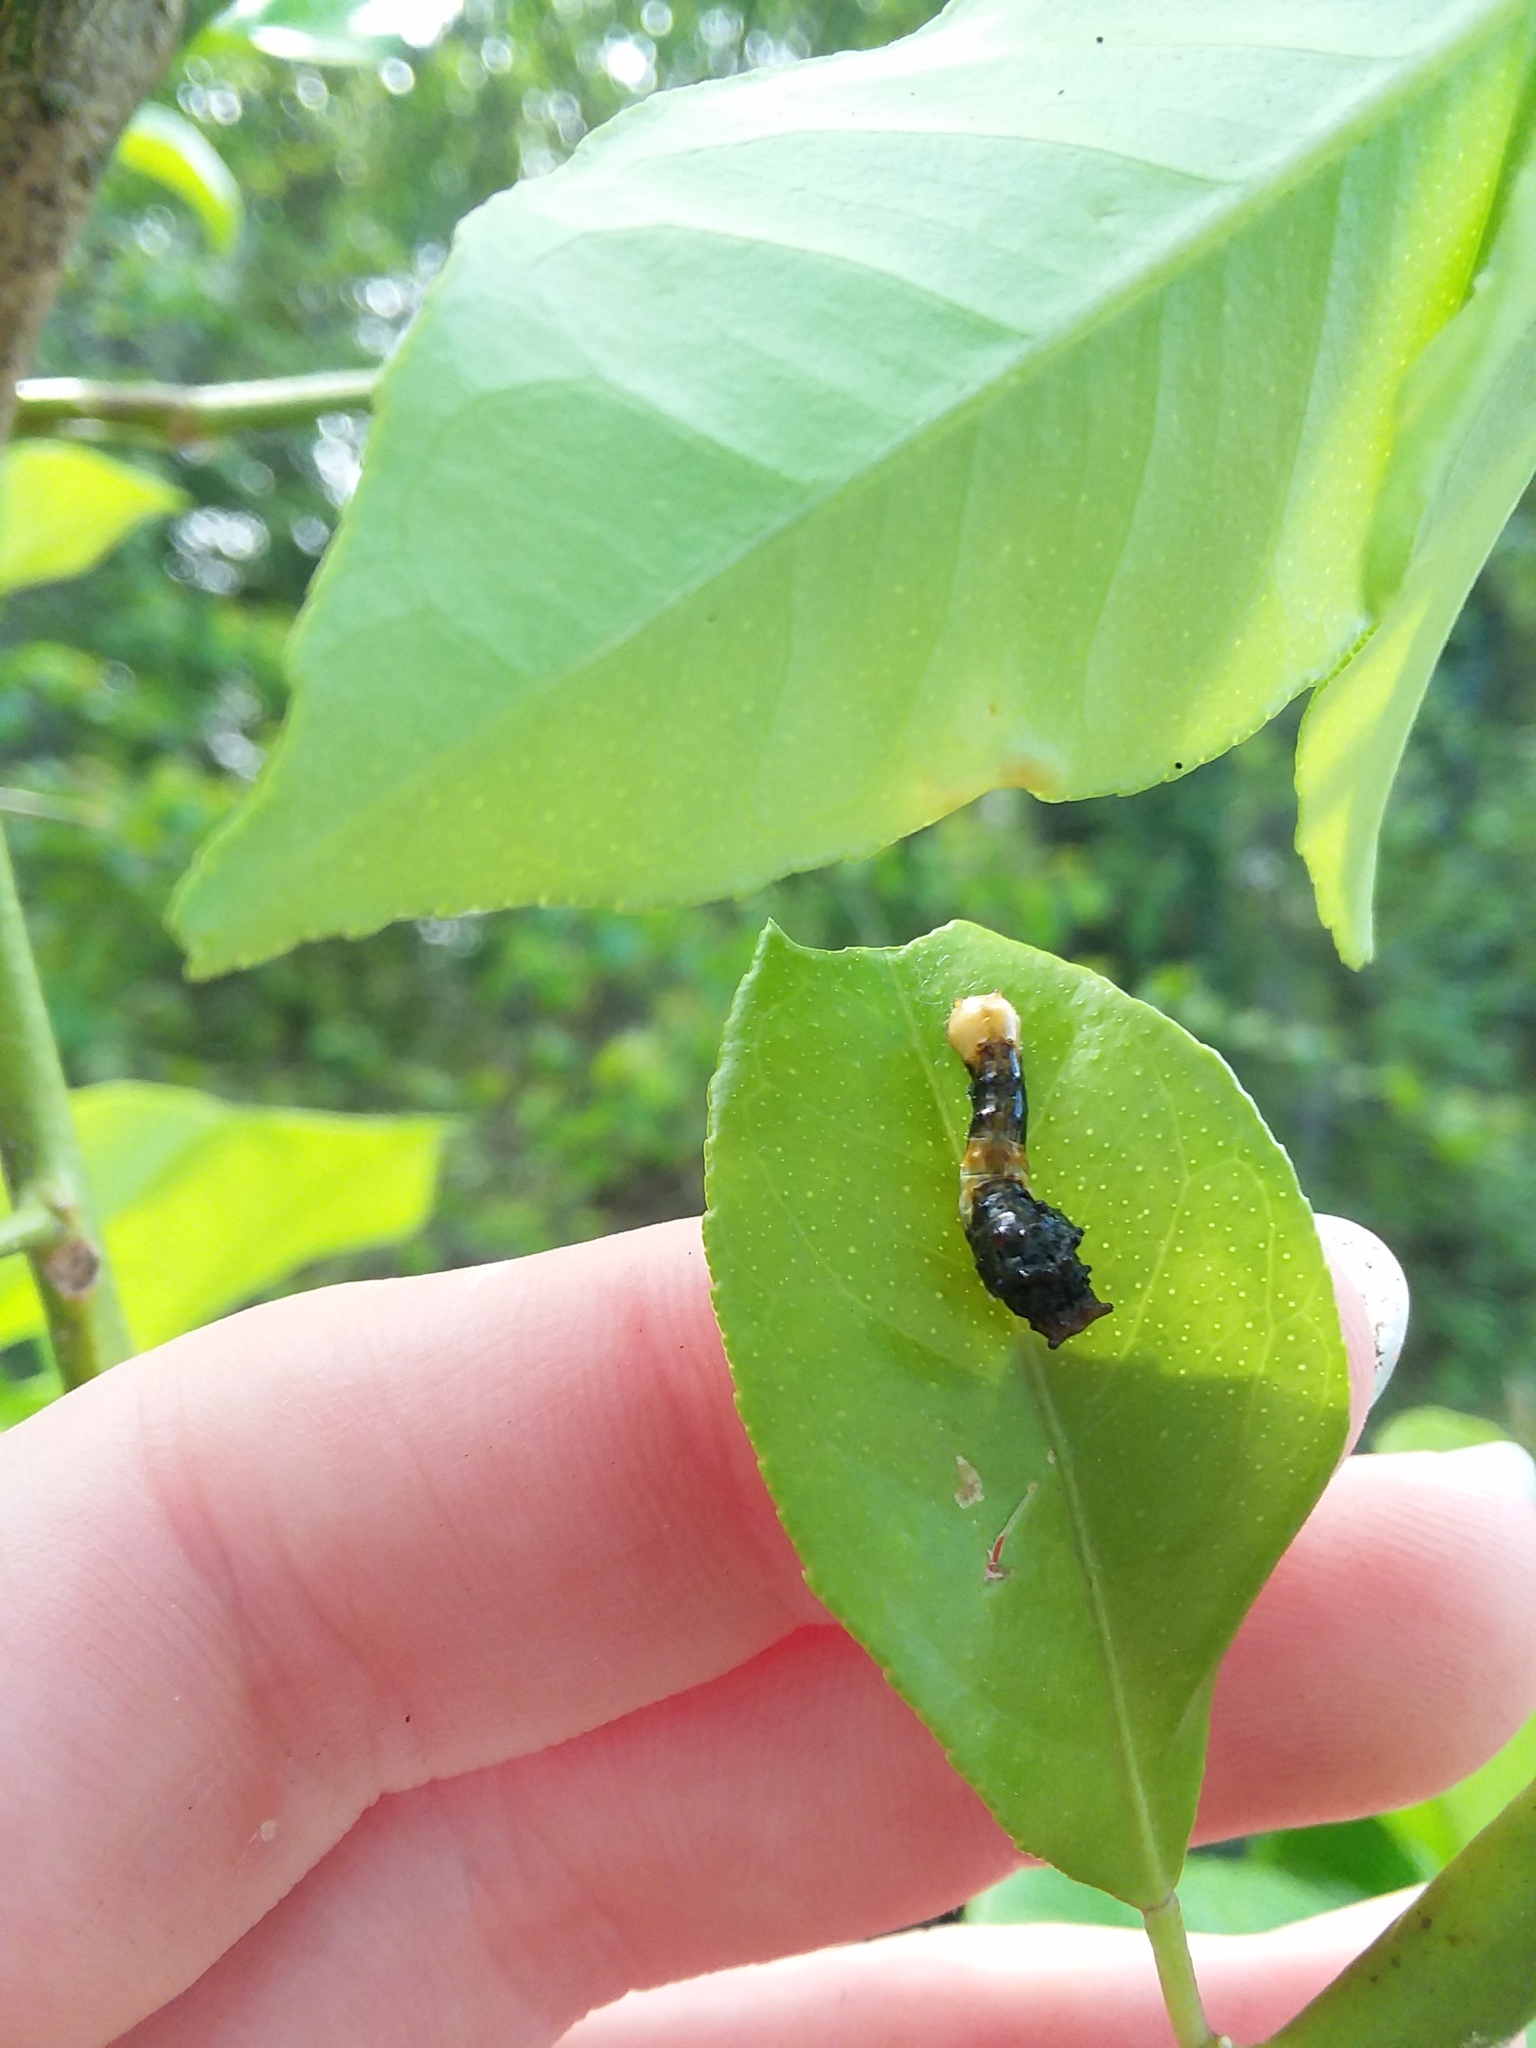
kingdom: Animalia
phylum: Arthropoda
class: Insecta
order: Lepidoptera
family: Papilionidae
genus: Papilio
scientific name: Papilio cresphontes
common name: Giant swallowtail
